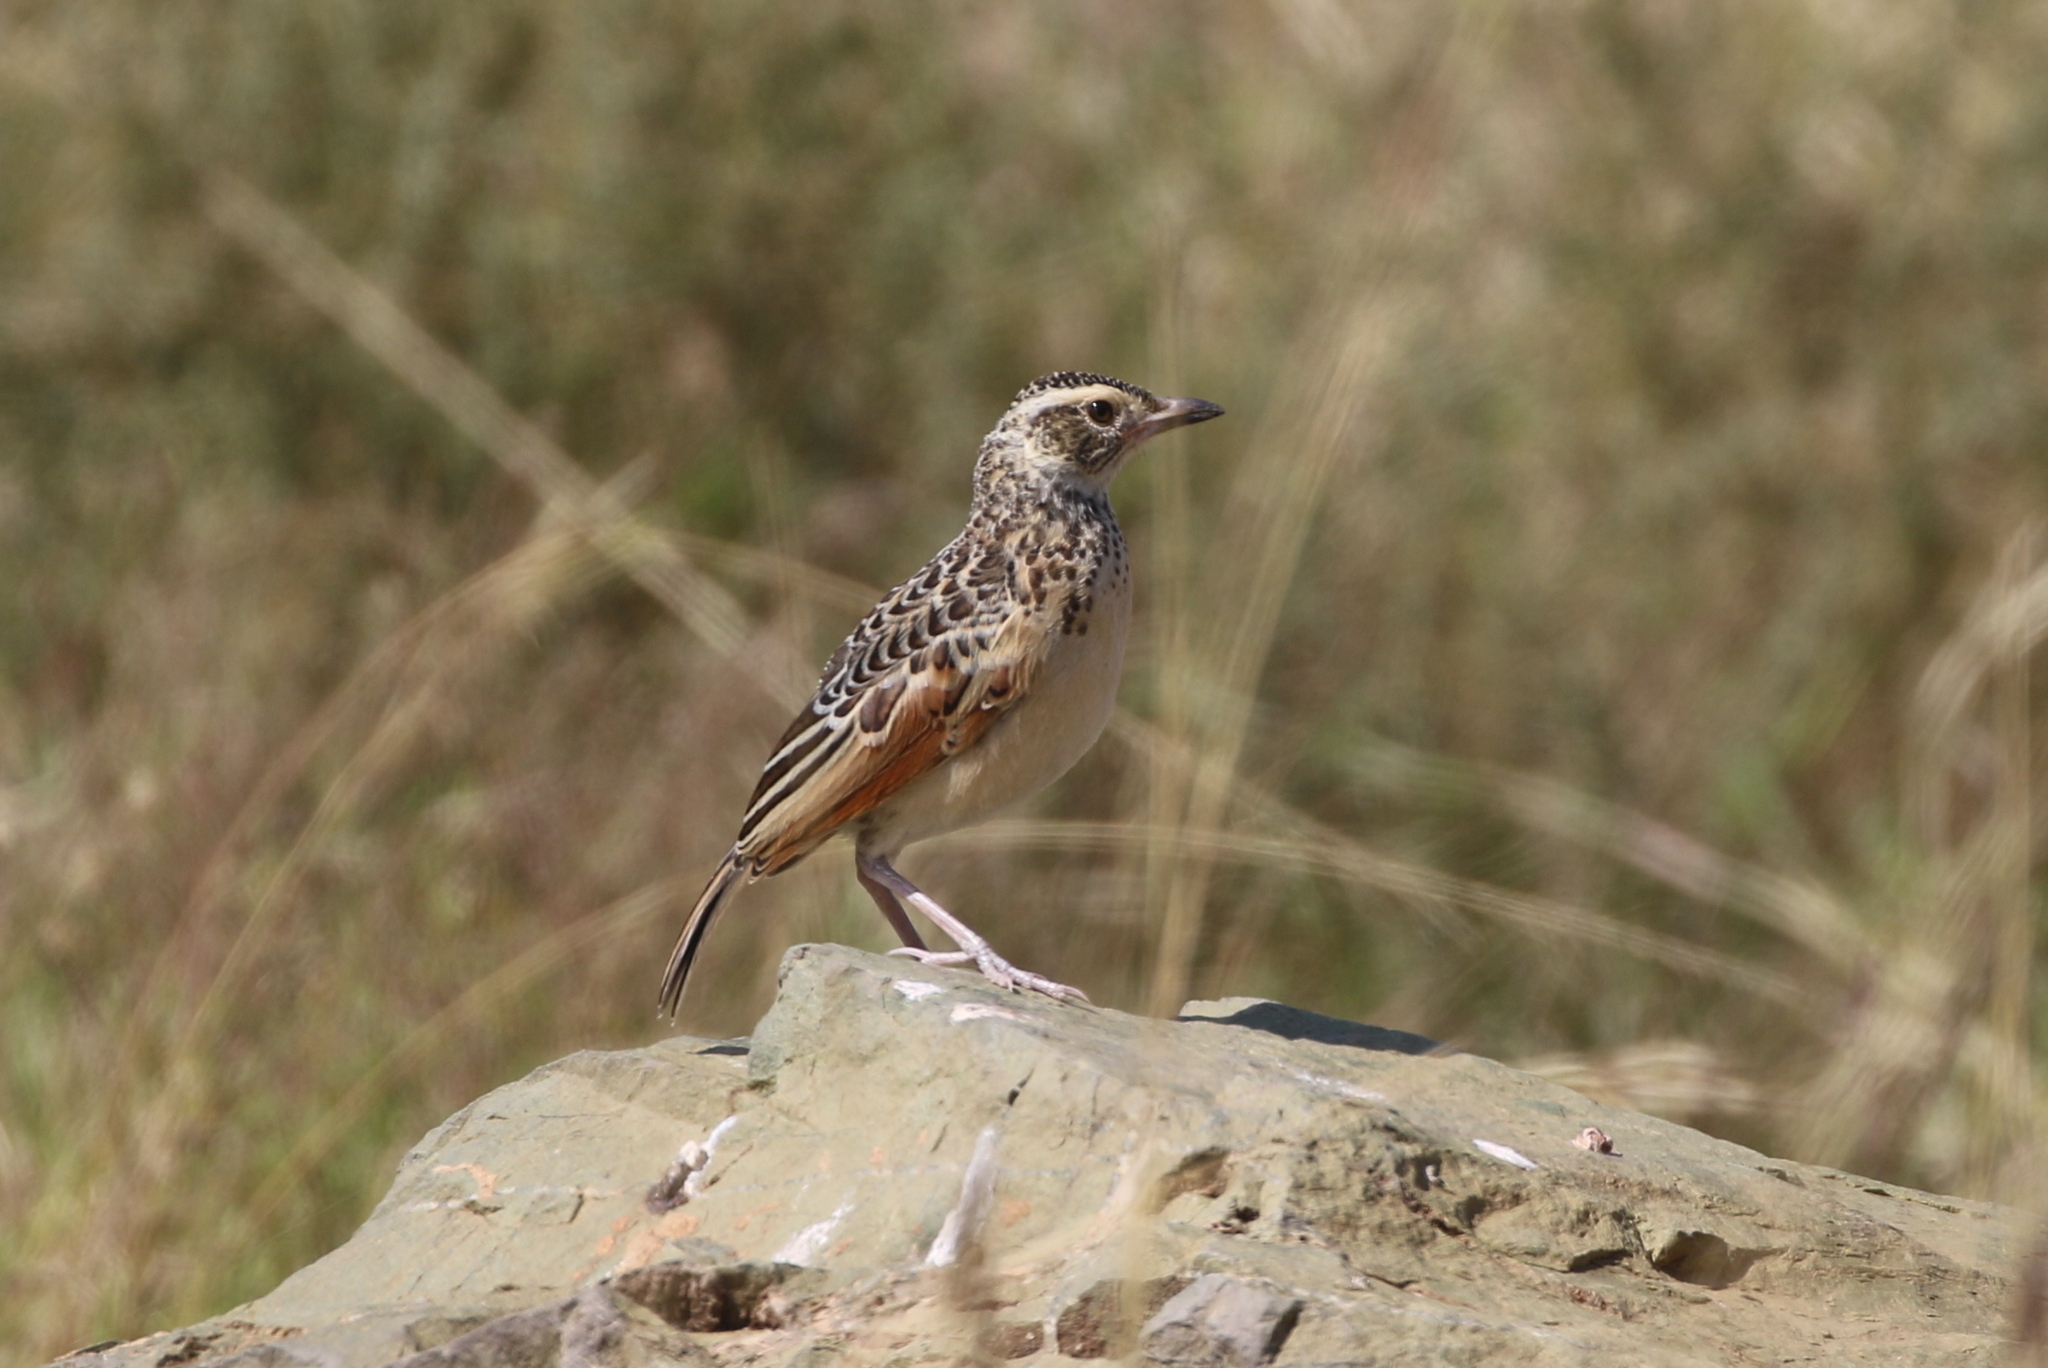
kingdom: Animalia
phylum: Chordata
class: Aves
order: Passeriformes
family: Alaudidae
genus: Mirafra
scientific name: Mirafra africana
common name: Rufous-naped lark
